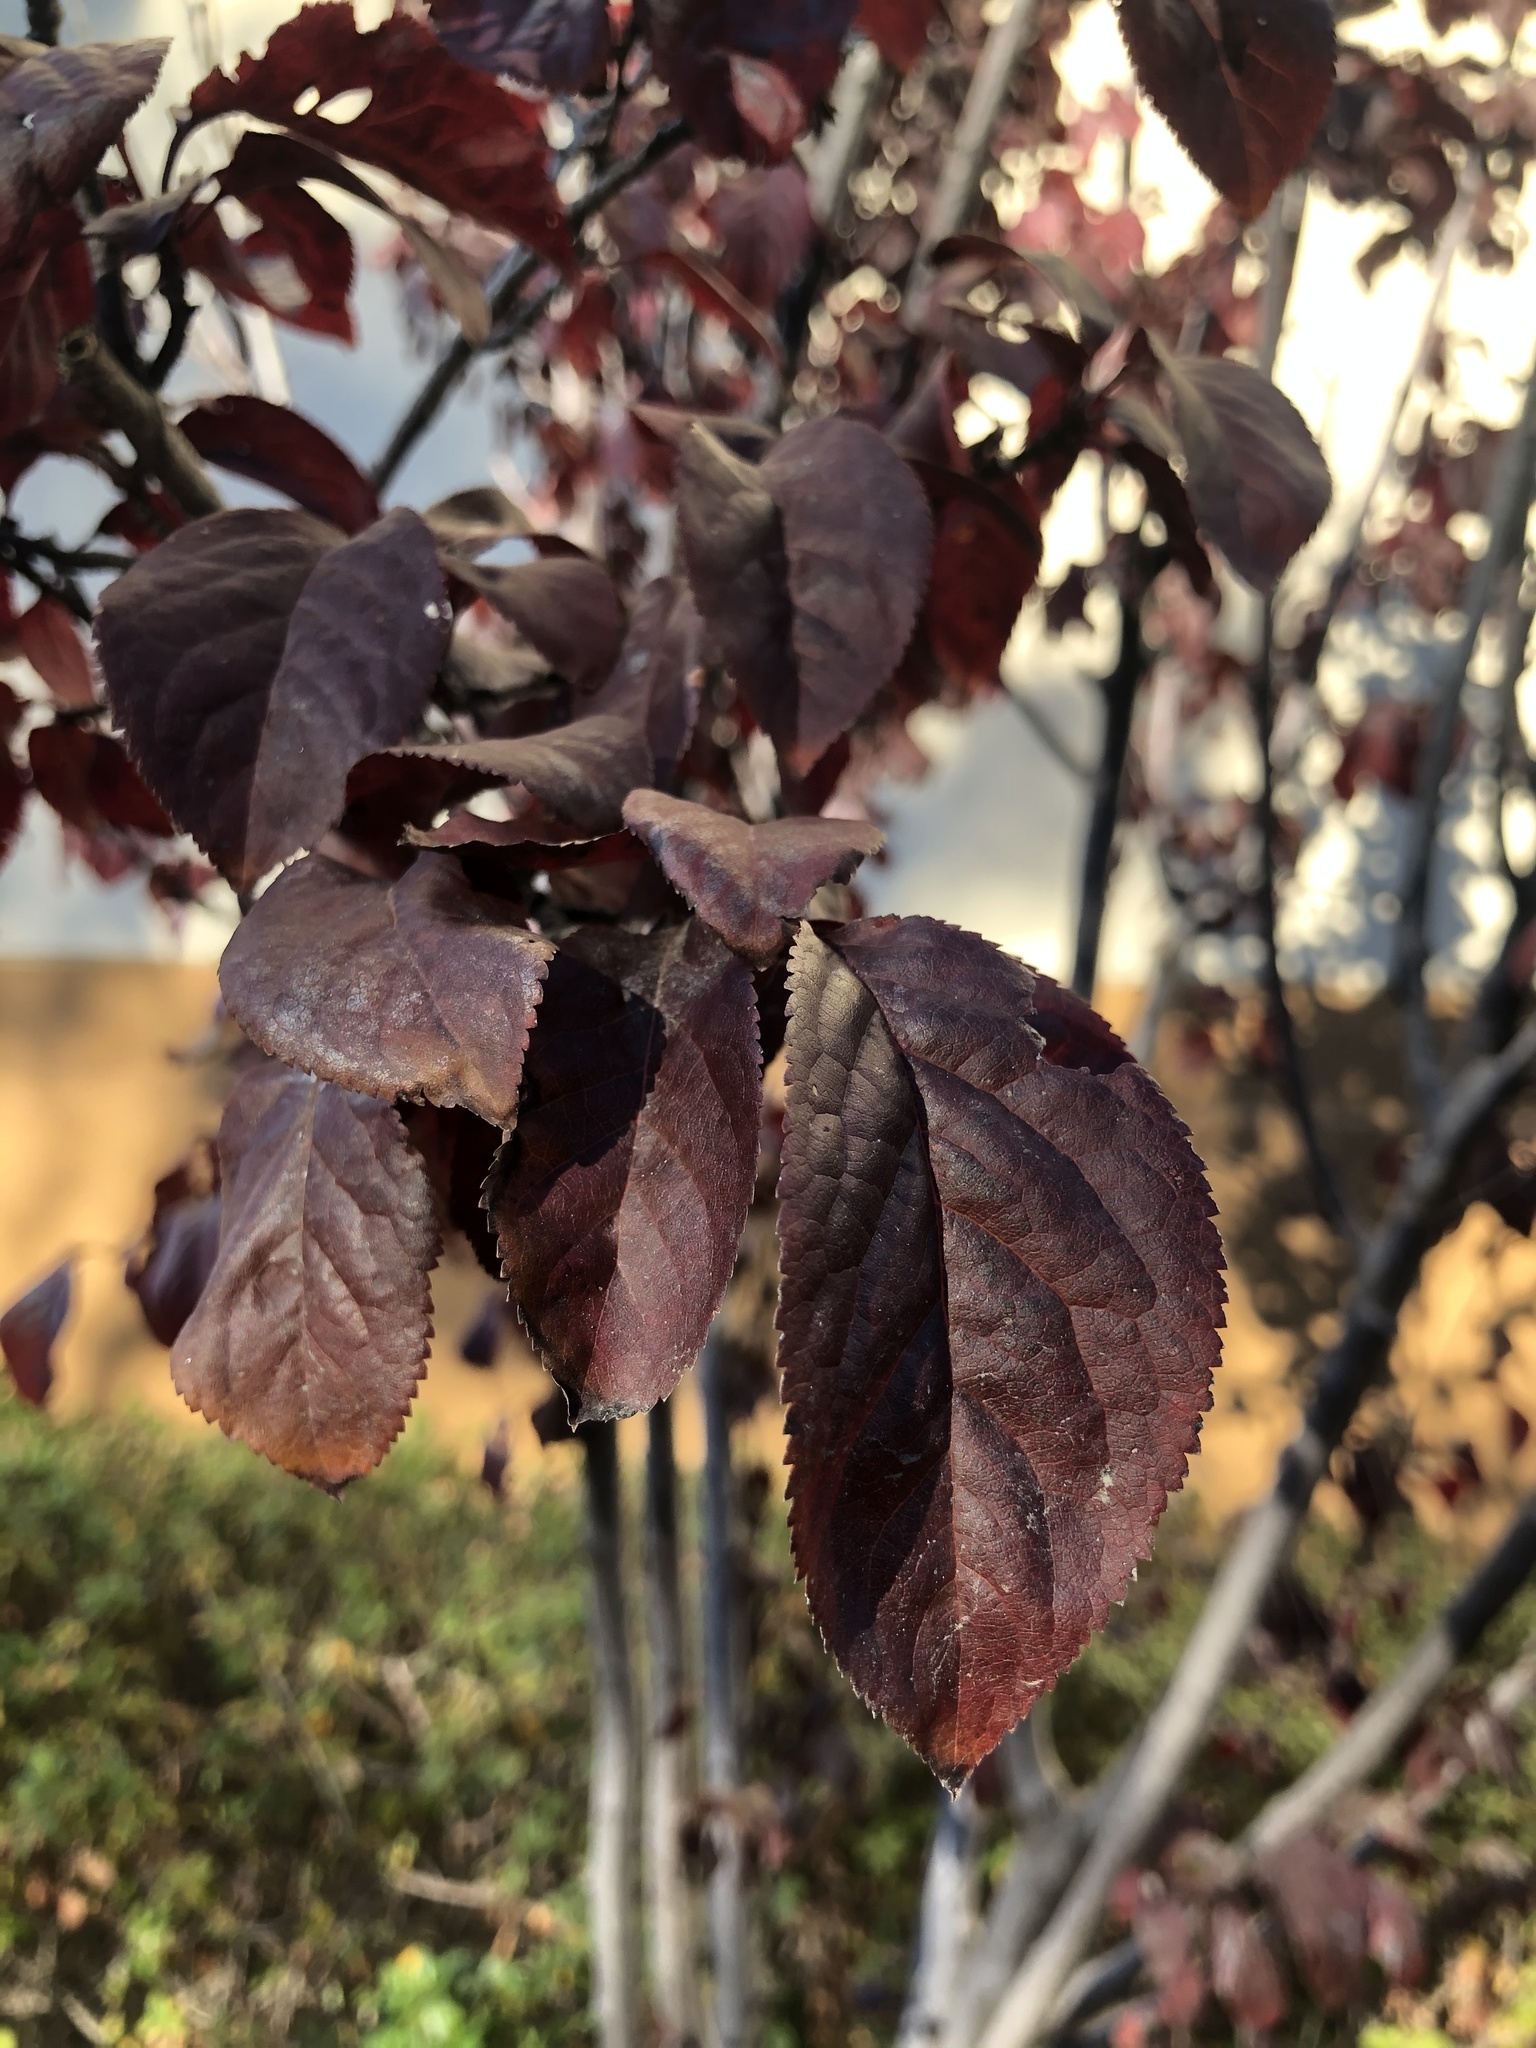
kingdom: Fungi
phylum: Basidiomycota
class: Agaricomycetes
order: Boletales
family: Suillaceae
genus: Suillus
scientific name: Suillus brevipes
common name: Short-stalked suillus
